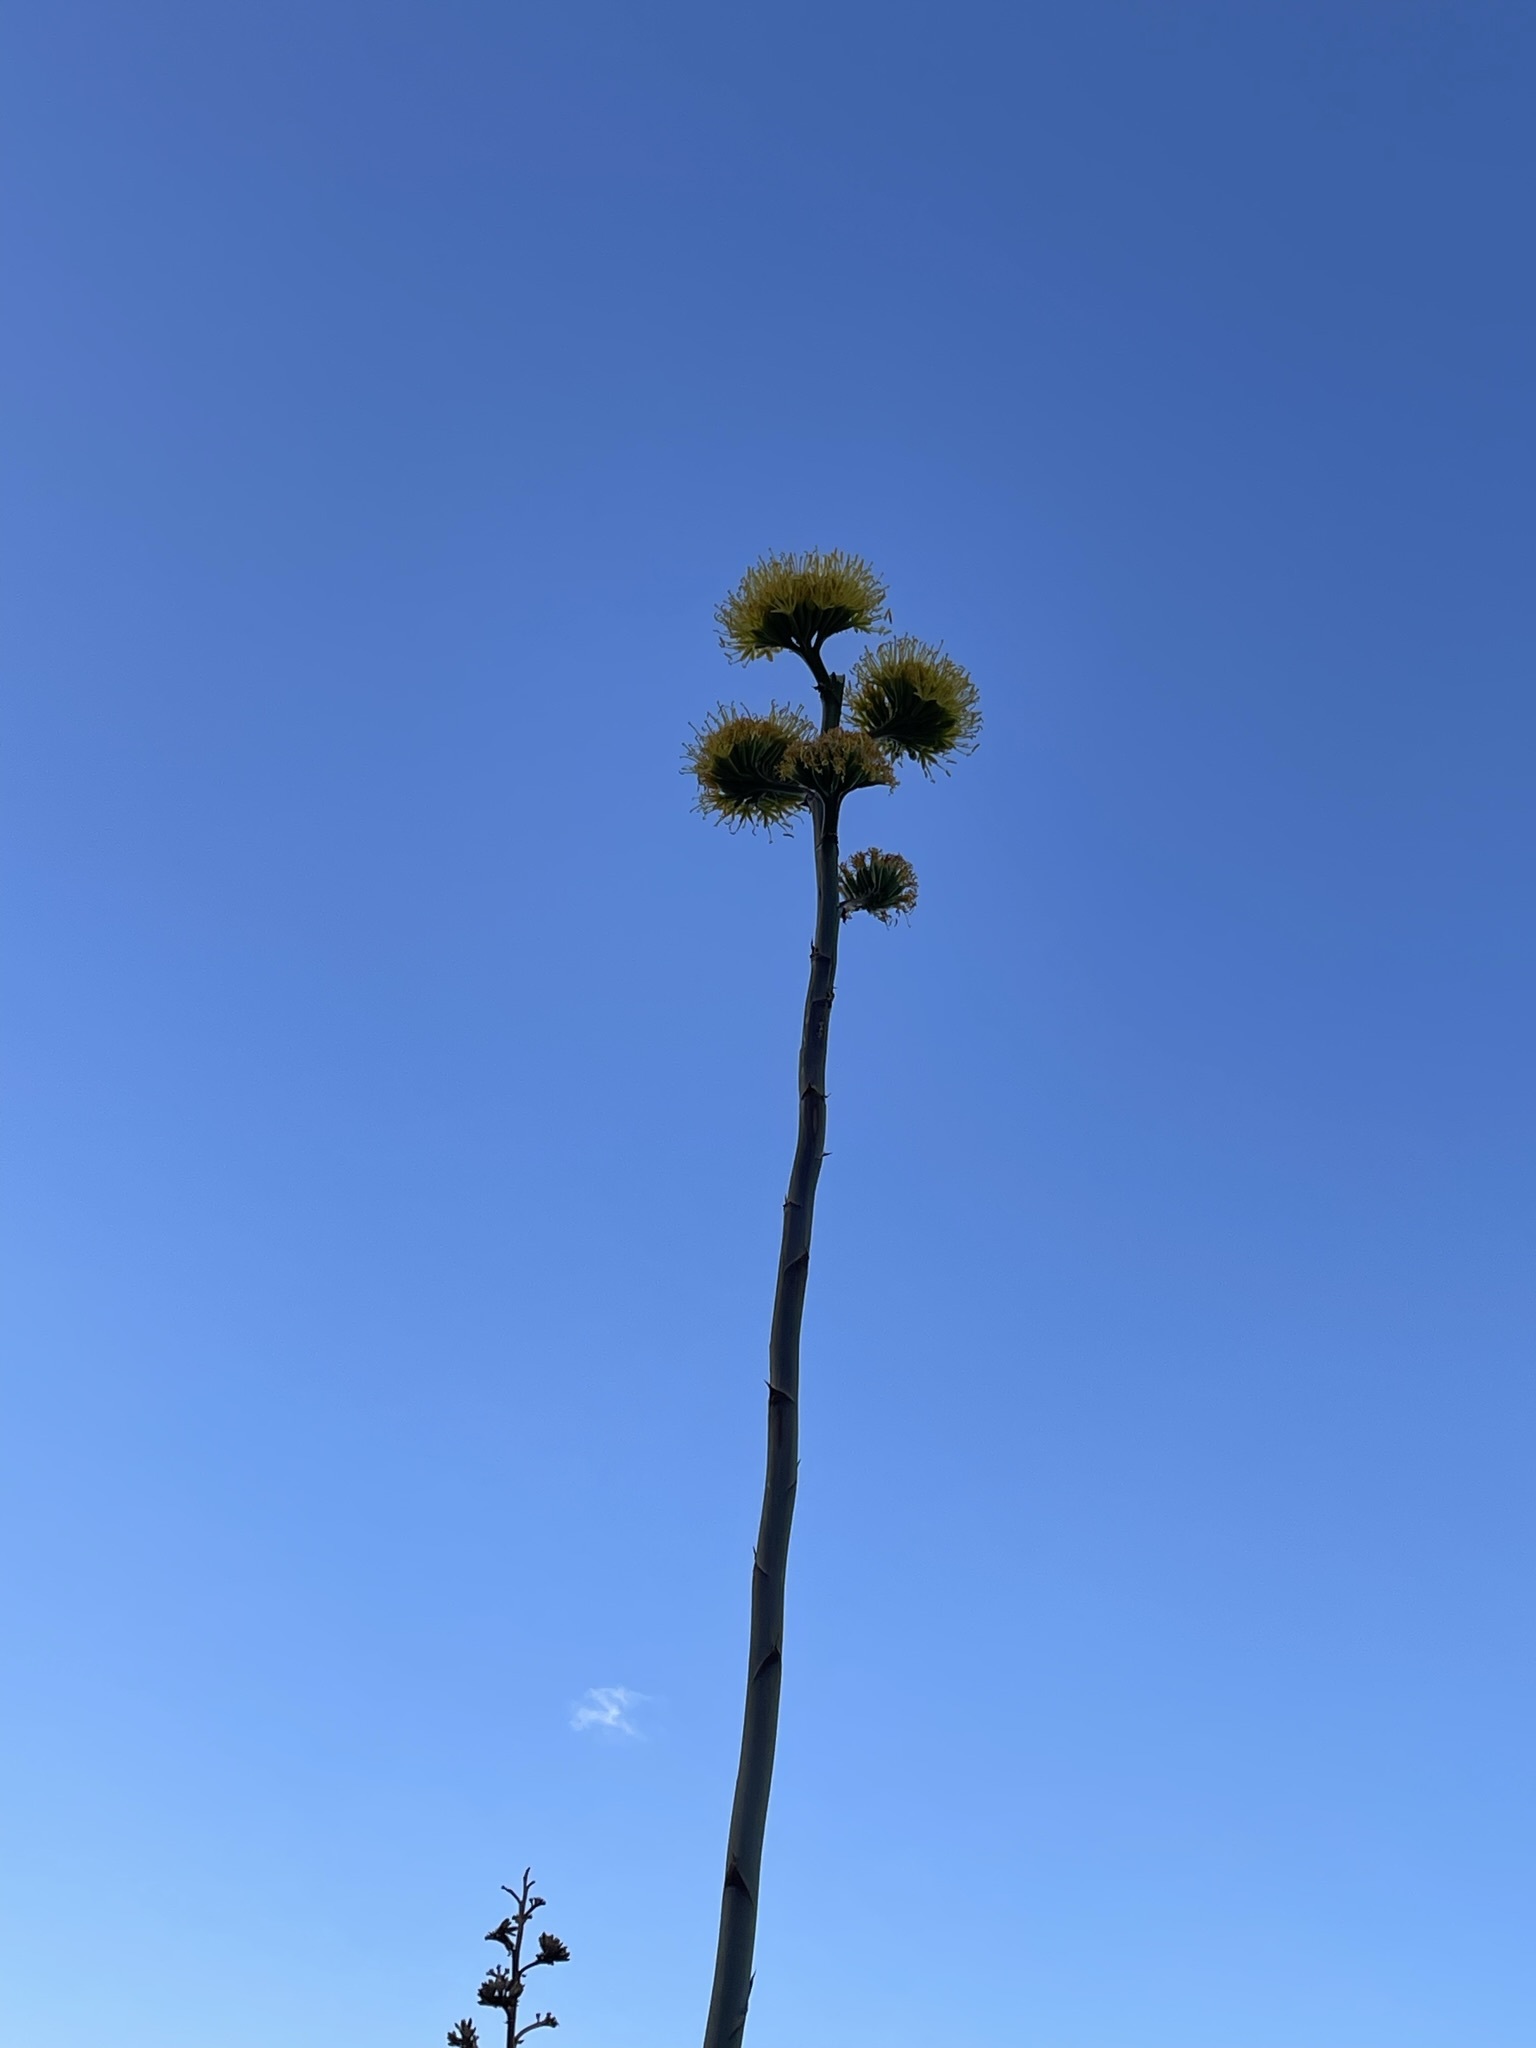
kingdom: Plantae
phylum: Tracheophyta
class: Liliopsida
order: Asparagales
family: Asparagaceae
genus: Agave
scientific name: Agave deserti
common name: Desert agave
